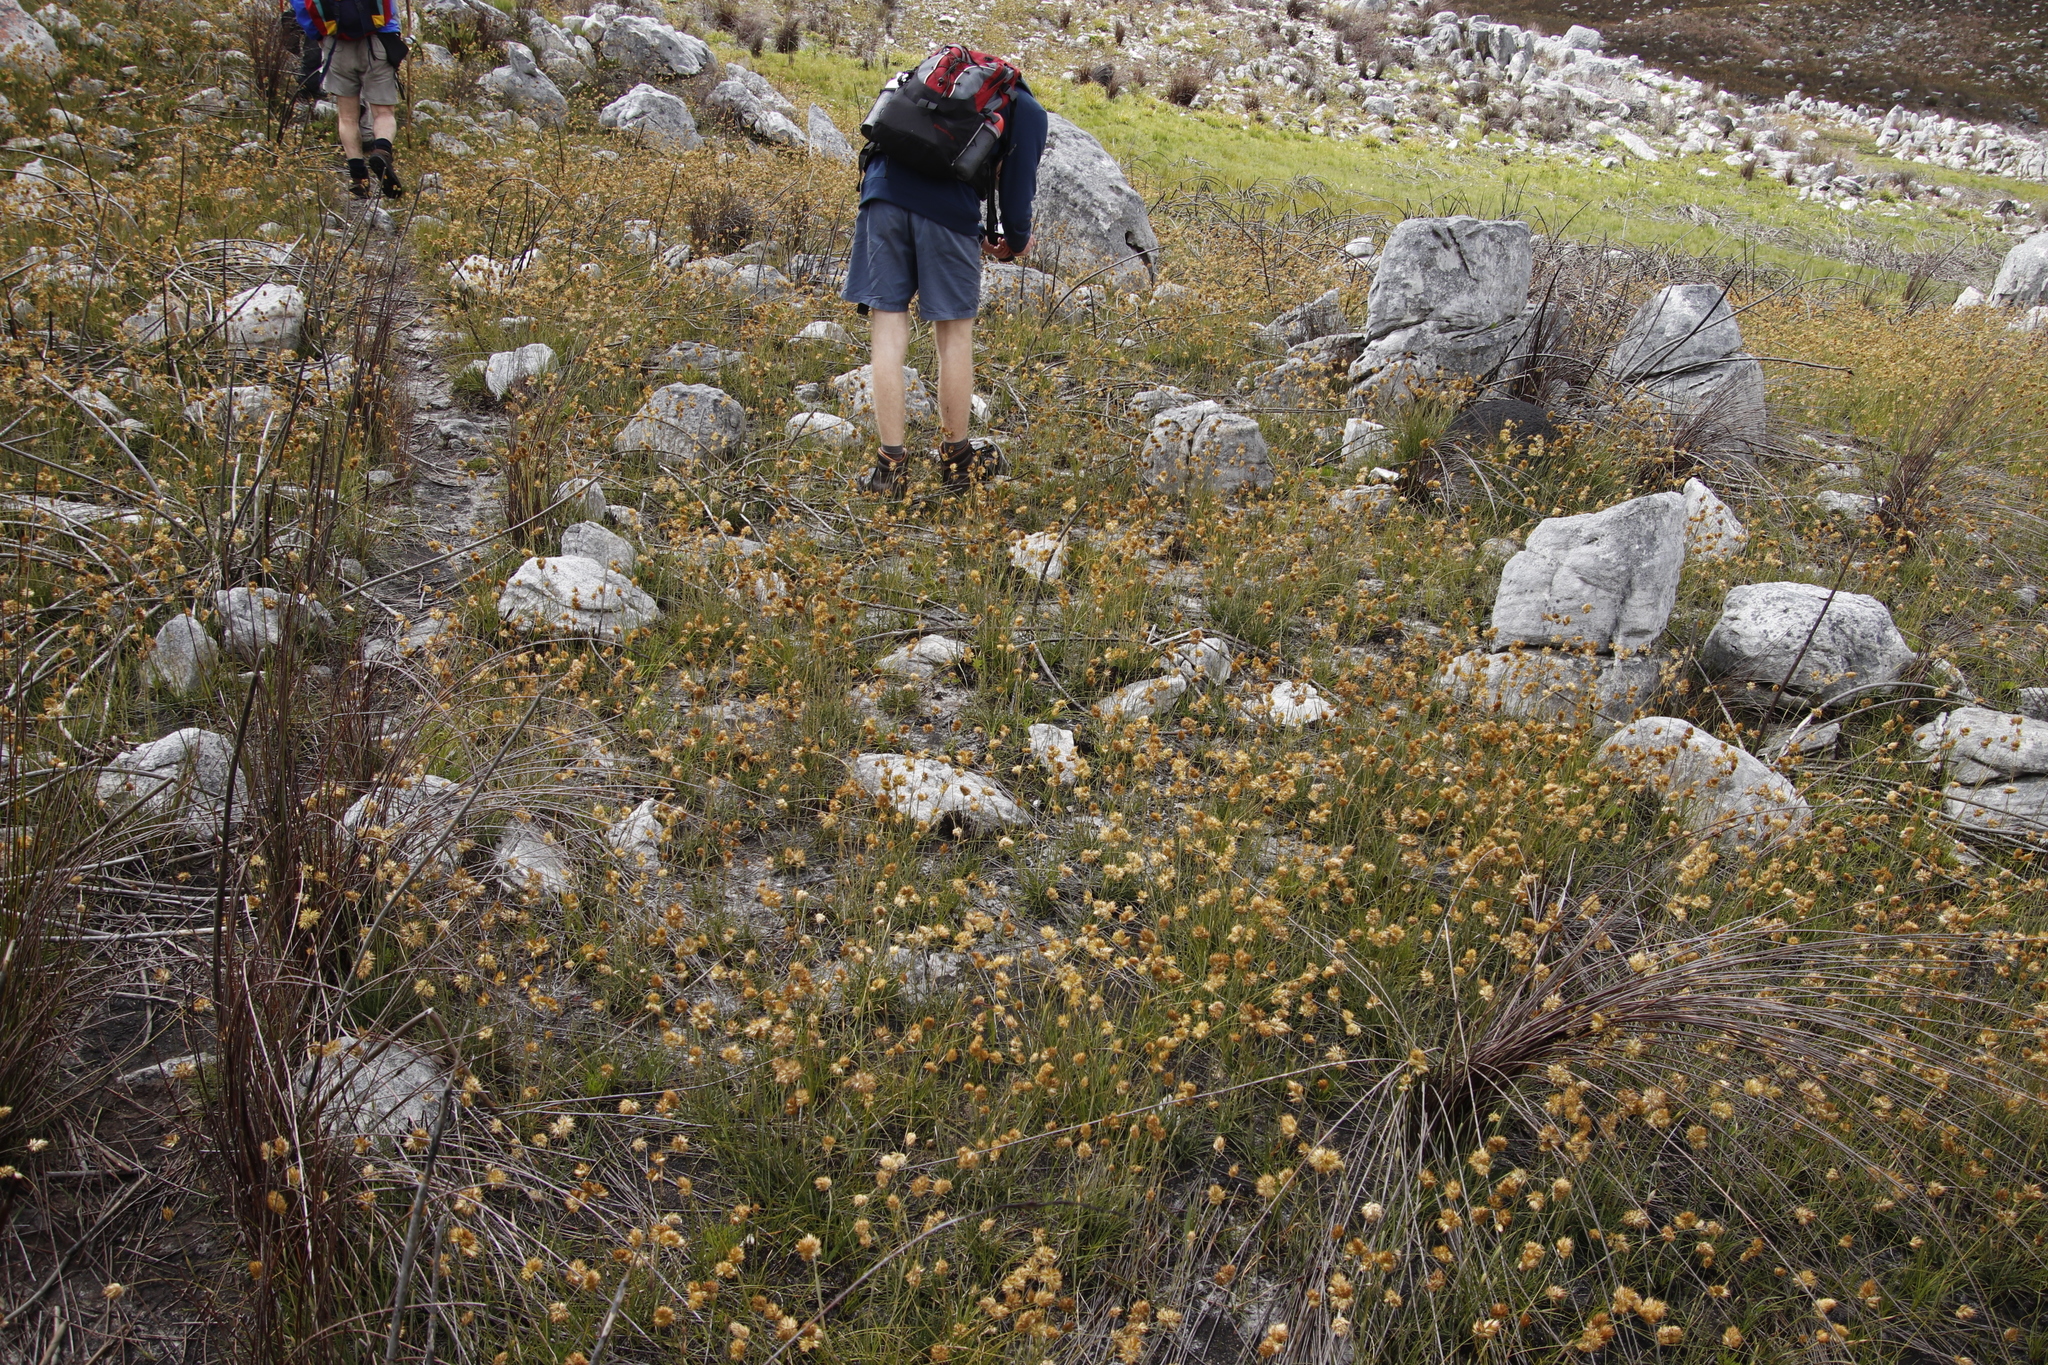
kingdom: Plantae
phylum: Tracheophyta
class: Liliopsida
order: Poales
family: Poaceae
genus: Geochloa
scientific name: Geochloa rufa
